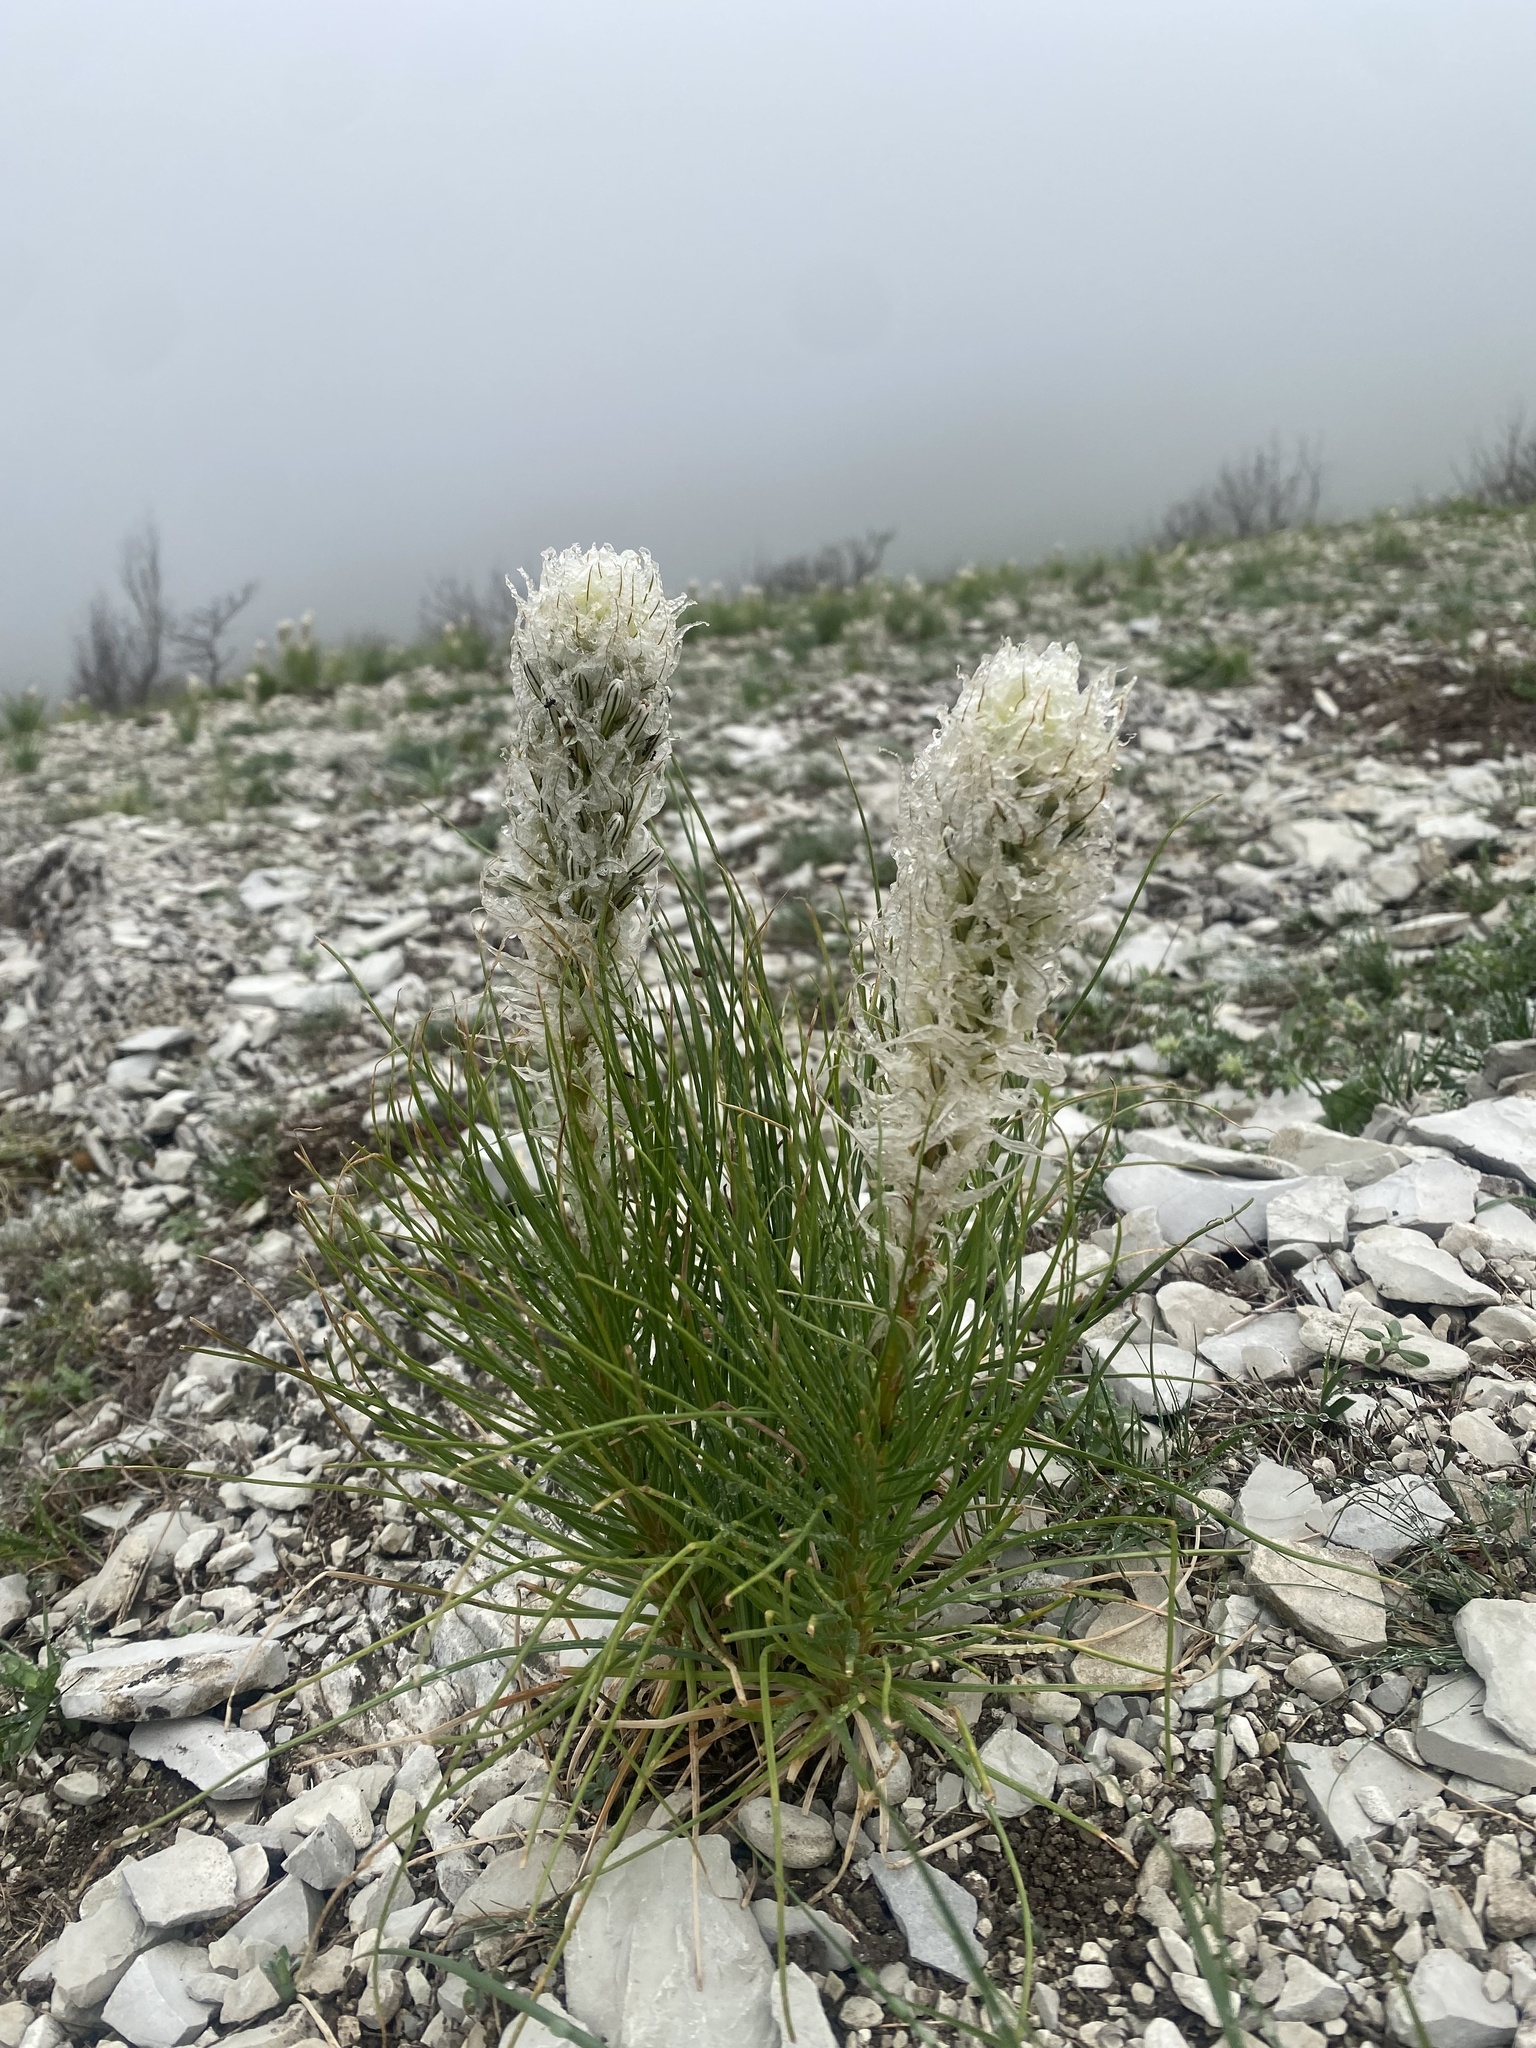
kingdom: Plantae
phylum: Tracheophyta
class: Liliopsida
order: Asparagales
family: Asphodelaceae
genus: Asphodeline
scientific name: Asphodeline taurica
